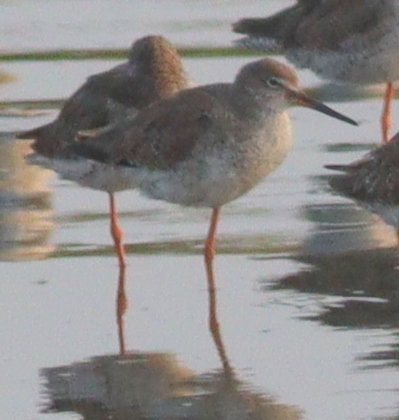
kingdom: Animalia
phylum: Chordata
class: Aves
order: Charadriiformes
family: Scolopacidae
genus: Tringa
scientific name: Tringa totanus
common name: Common redshank
